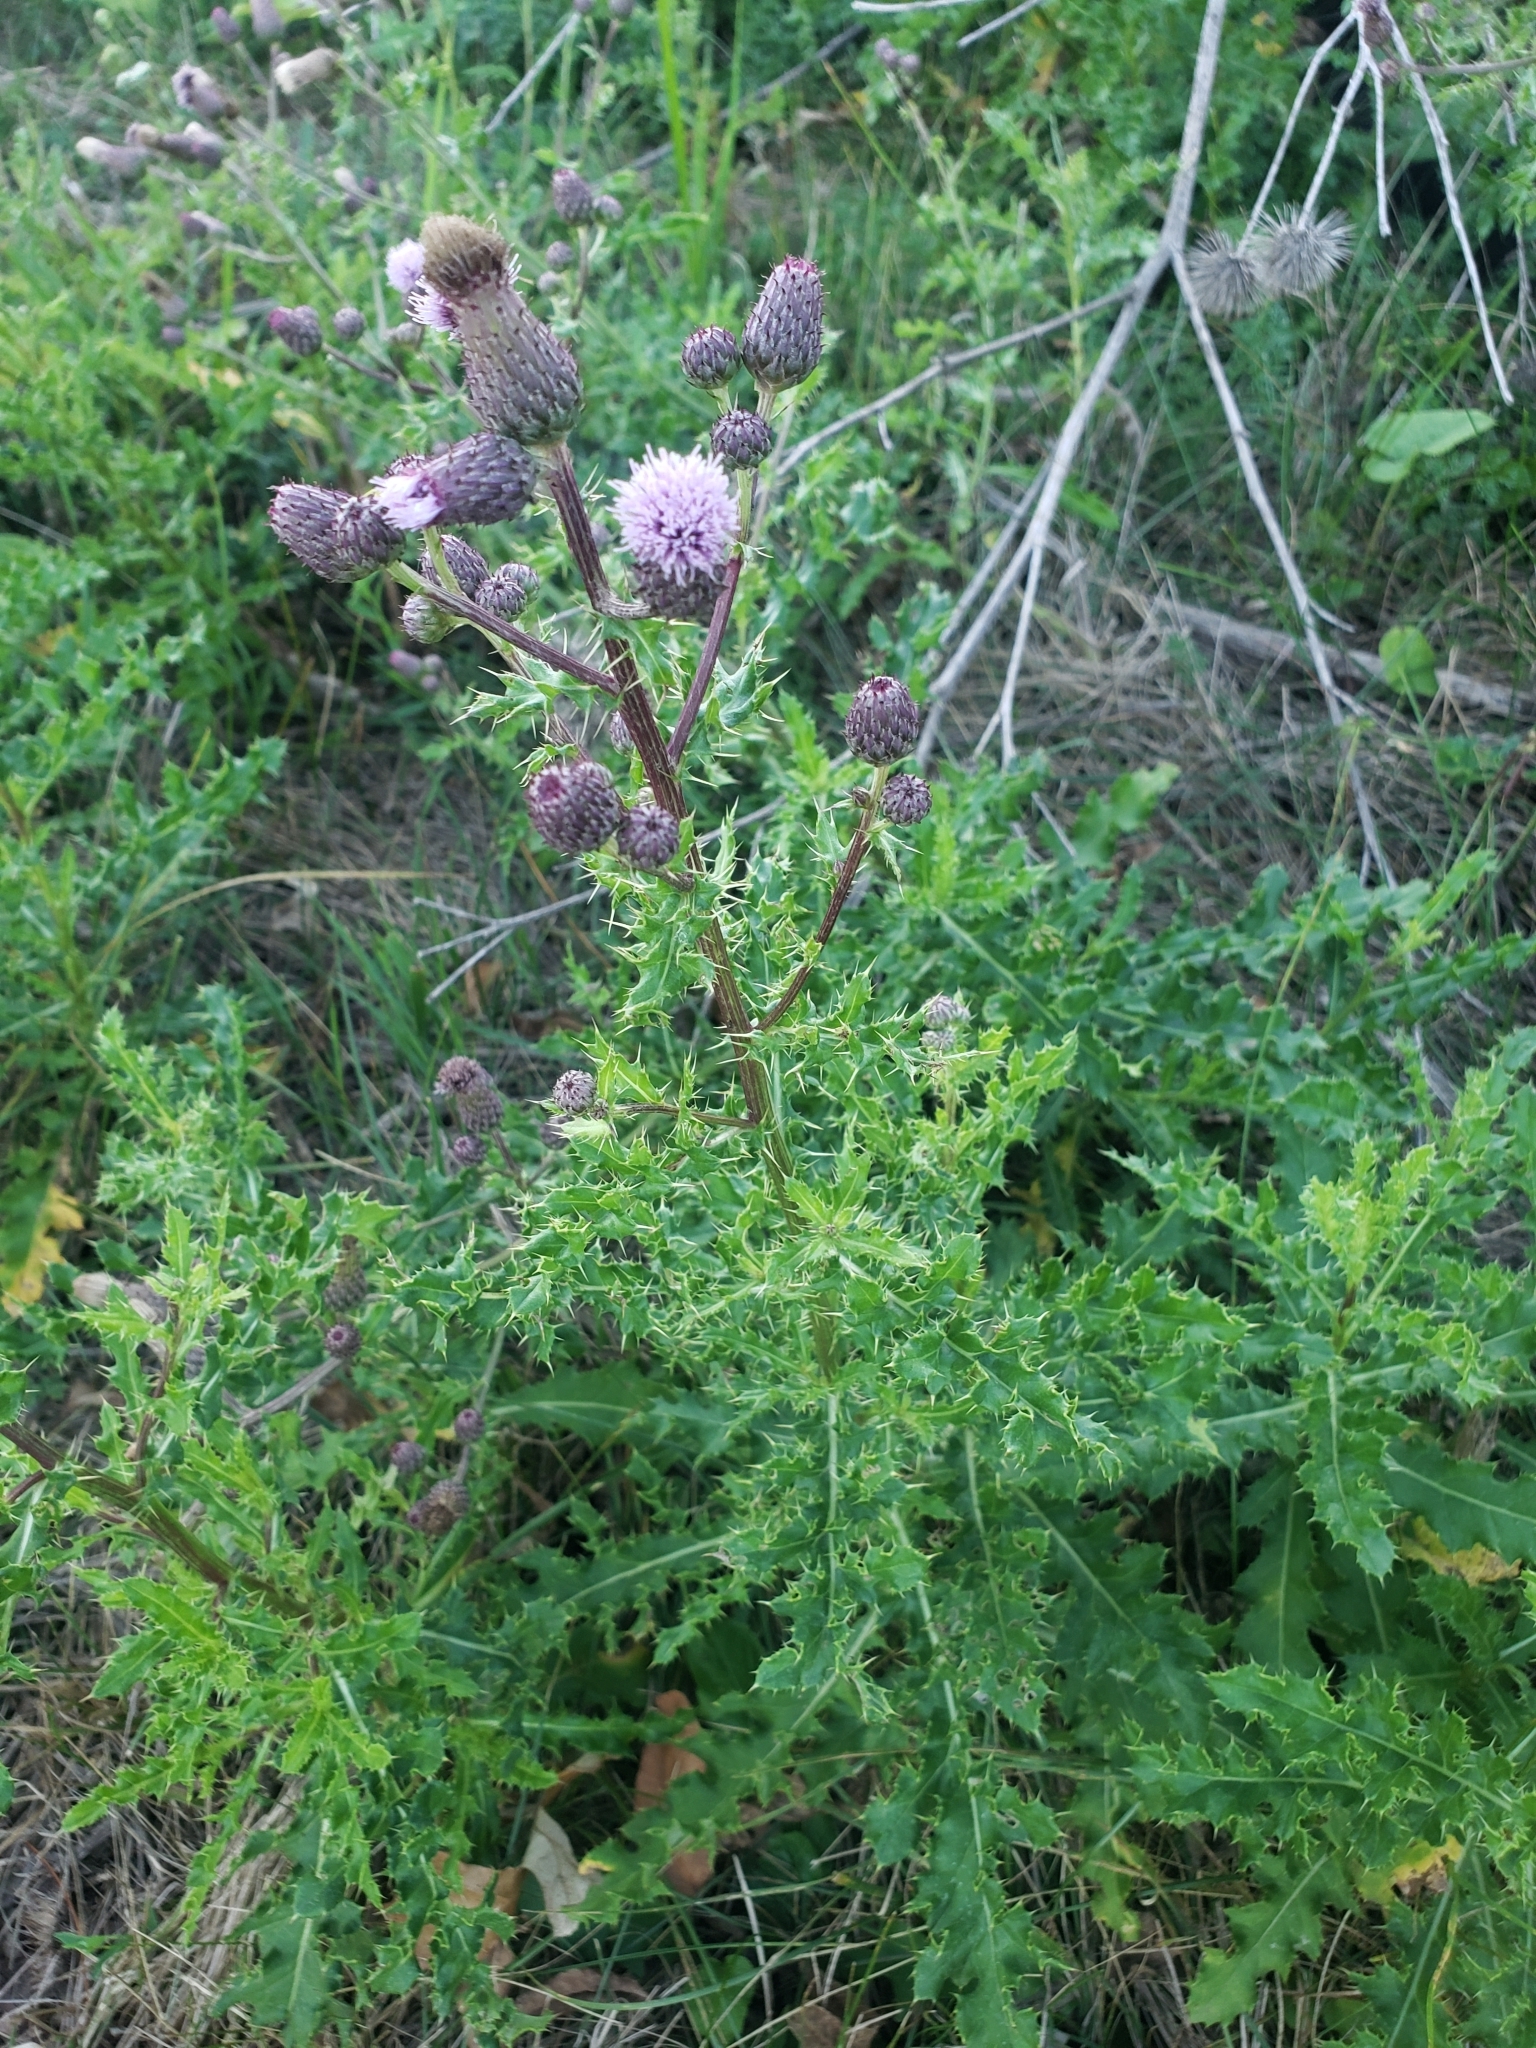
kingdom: Plantae
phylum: Tracheophyta
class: Magnoliopsida
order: Asterales
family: Asteraceae
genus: Cirsium
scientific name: Cirsium arvense
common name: Creeping thistle
